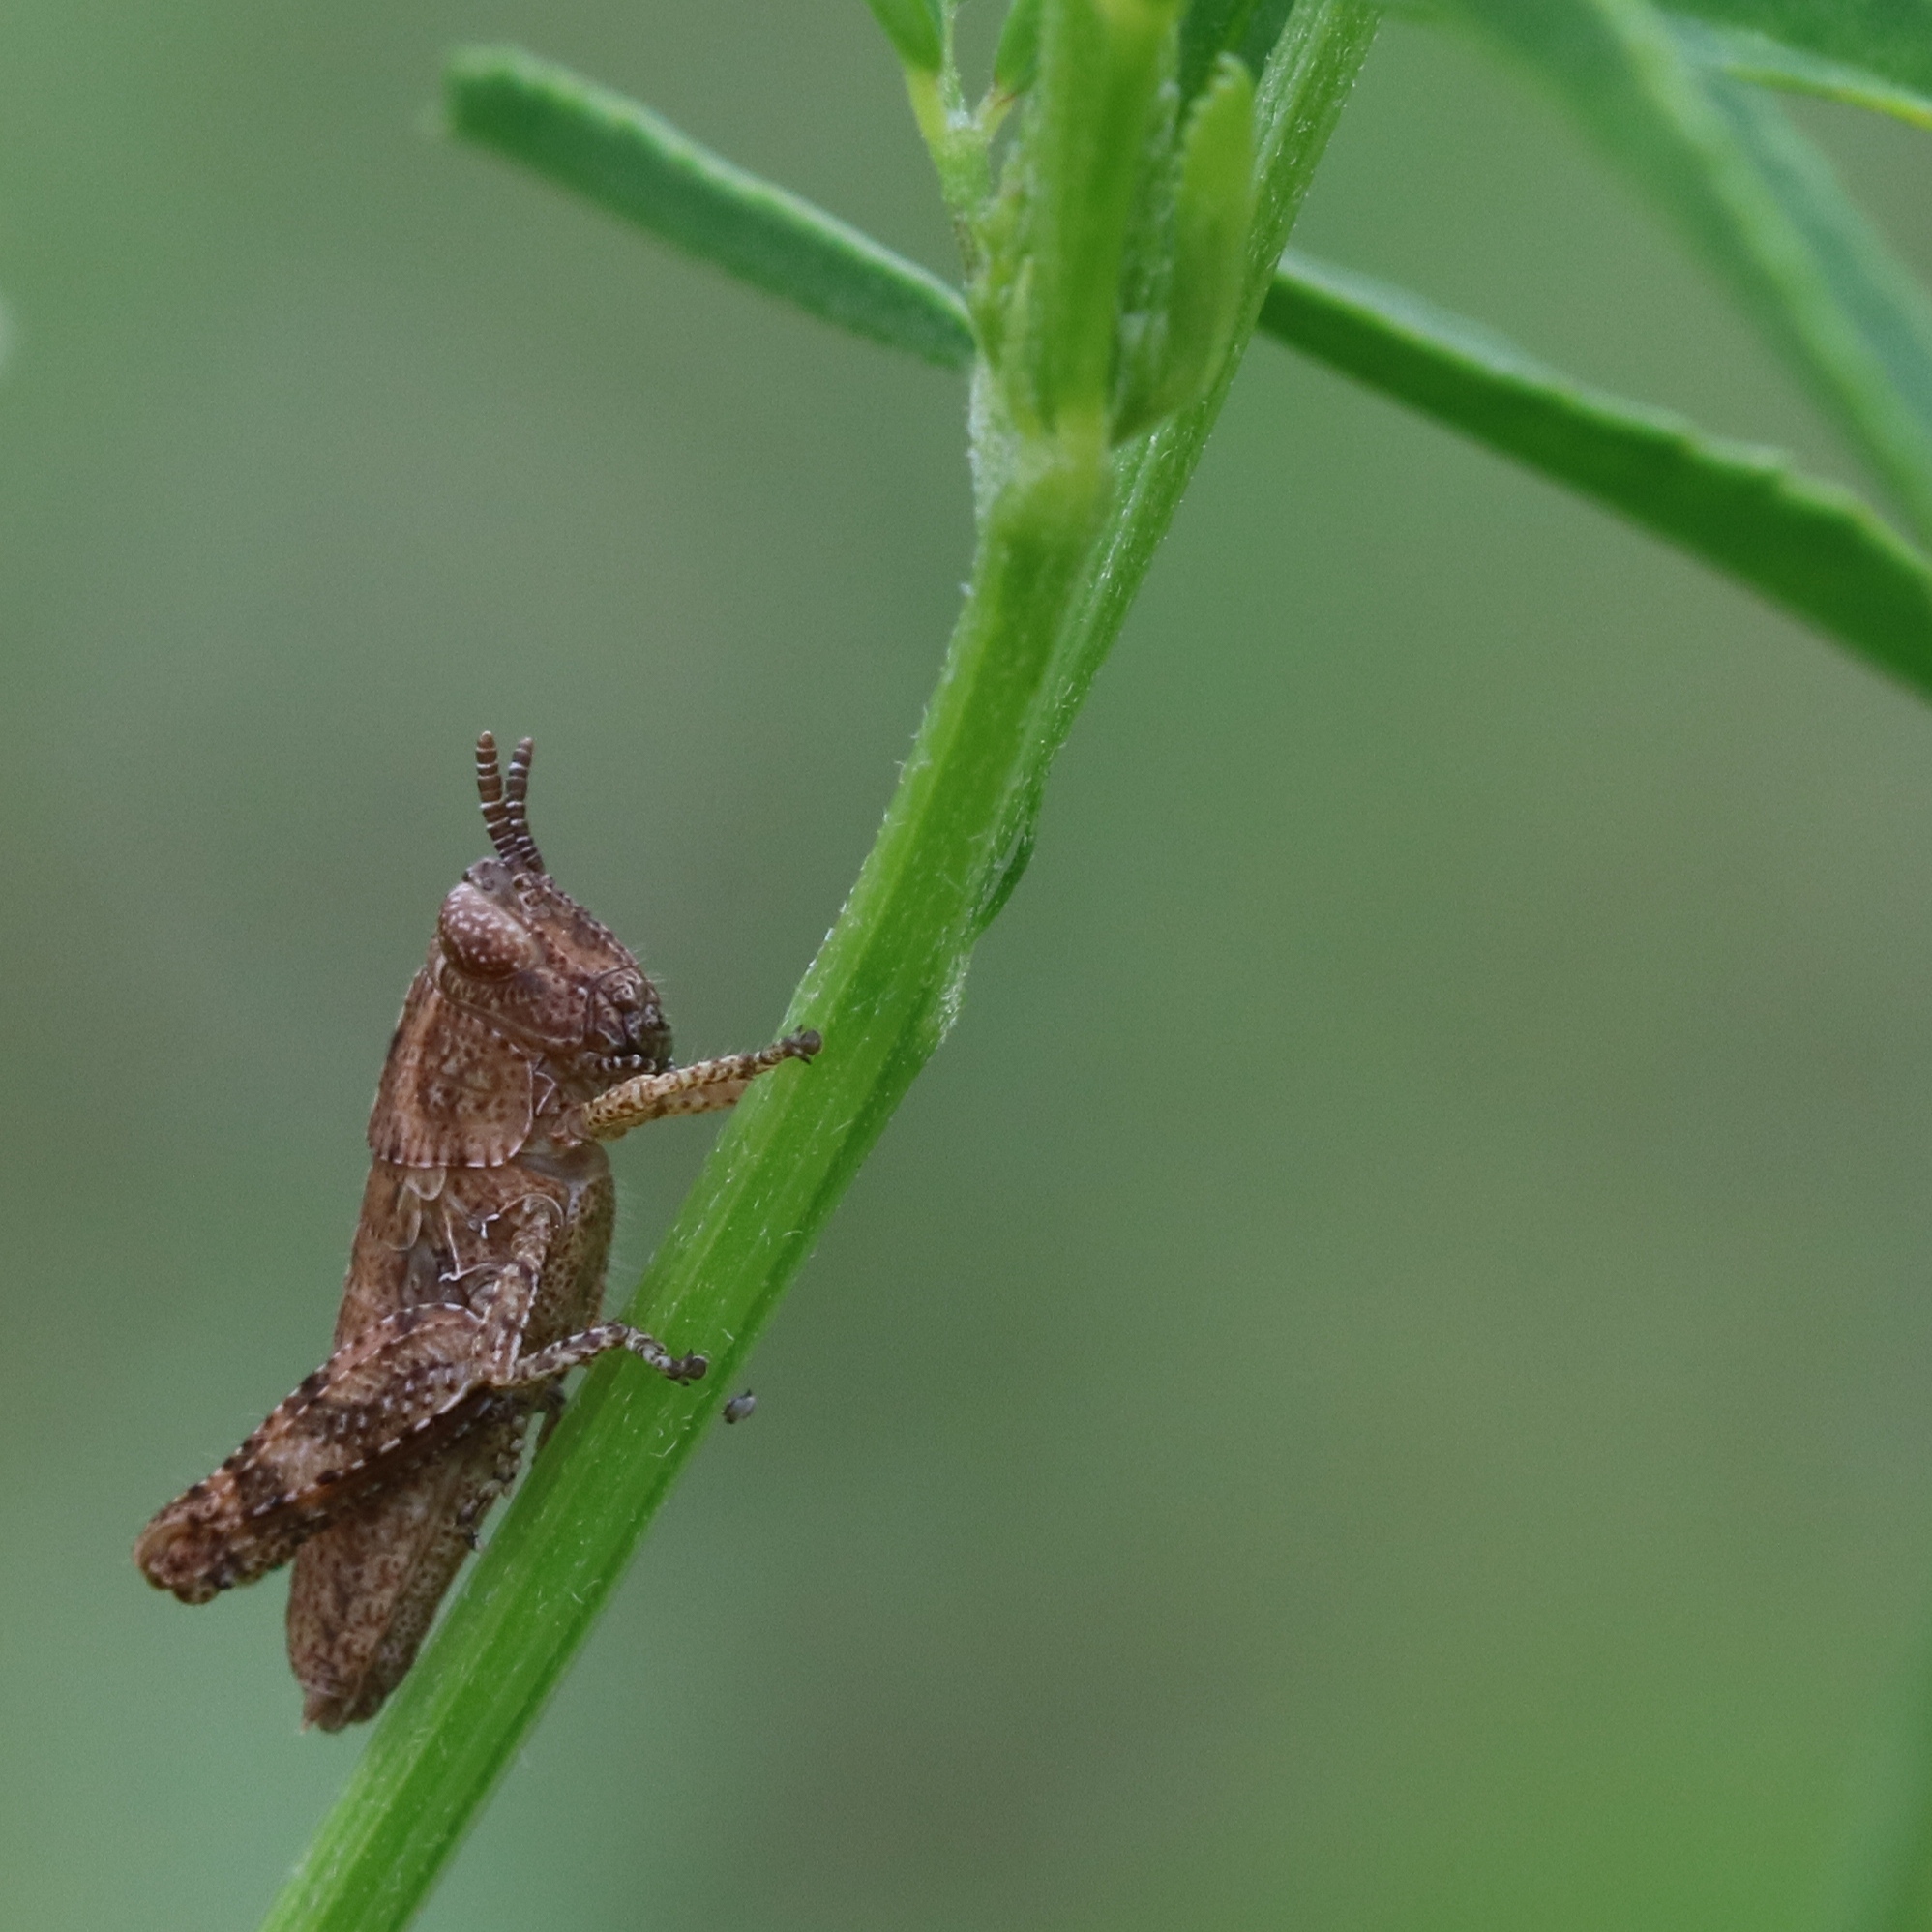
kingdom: Animalia
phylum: Arthropoda
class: Insecta
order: Orthoptera
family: Acrididae
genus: Pezotettix
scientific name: Pezotettix giornae
